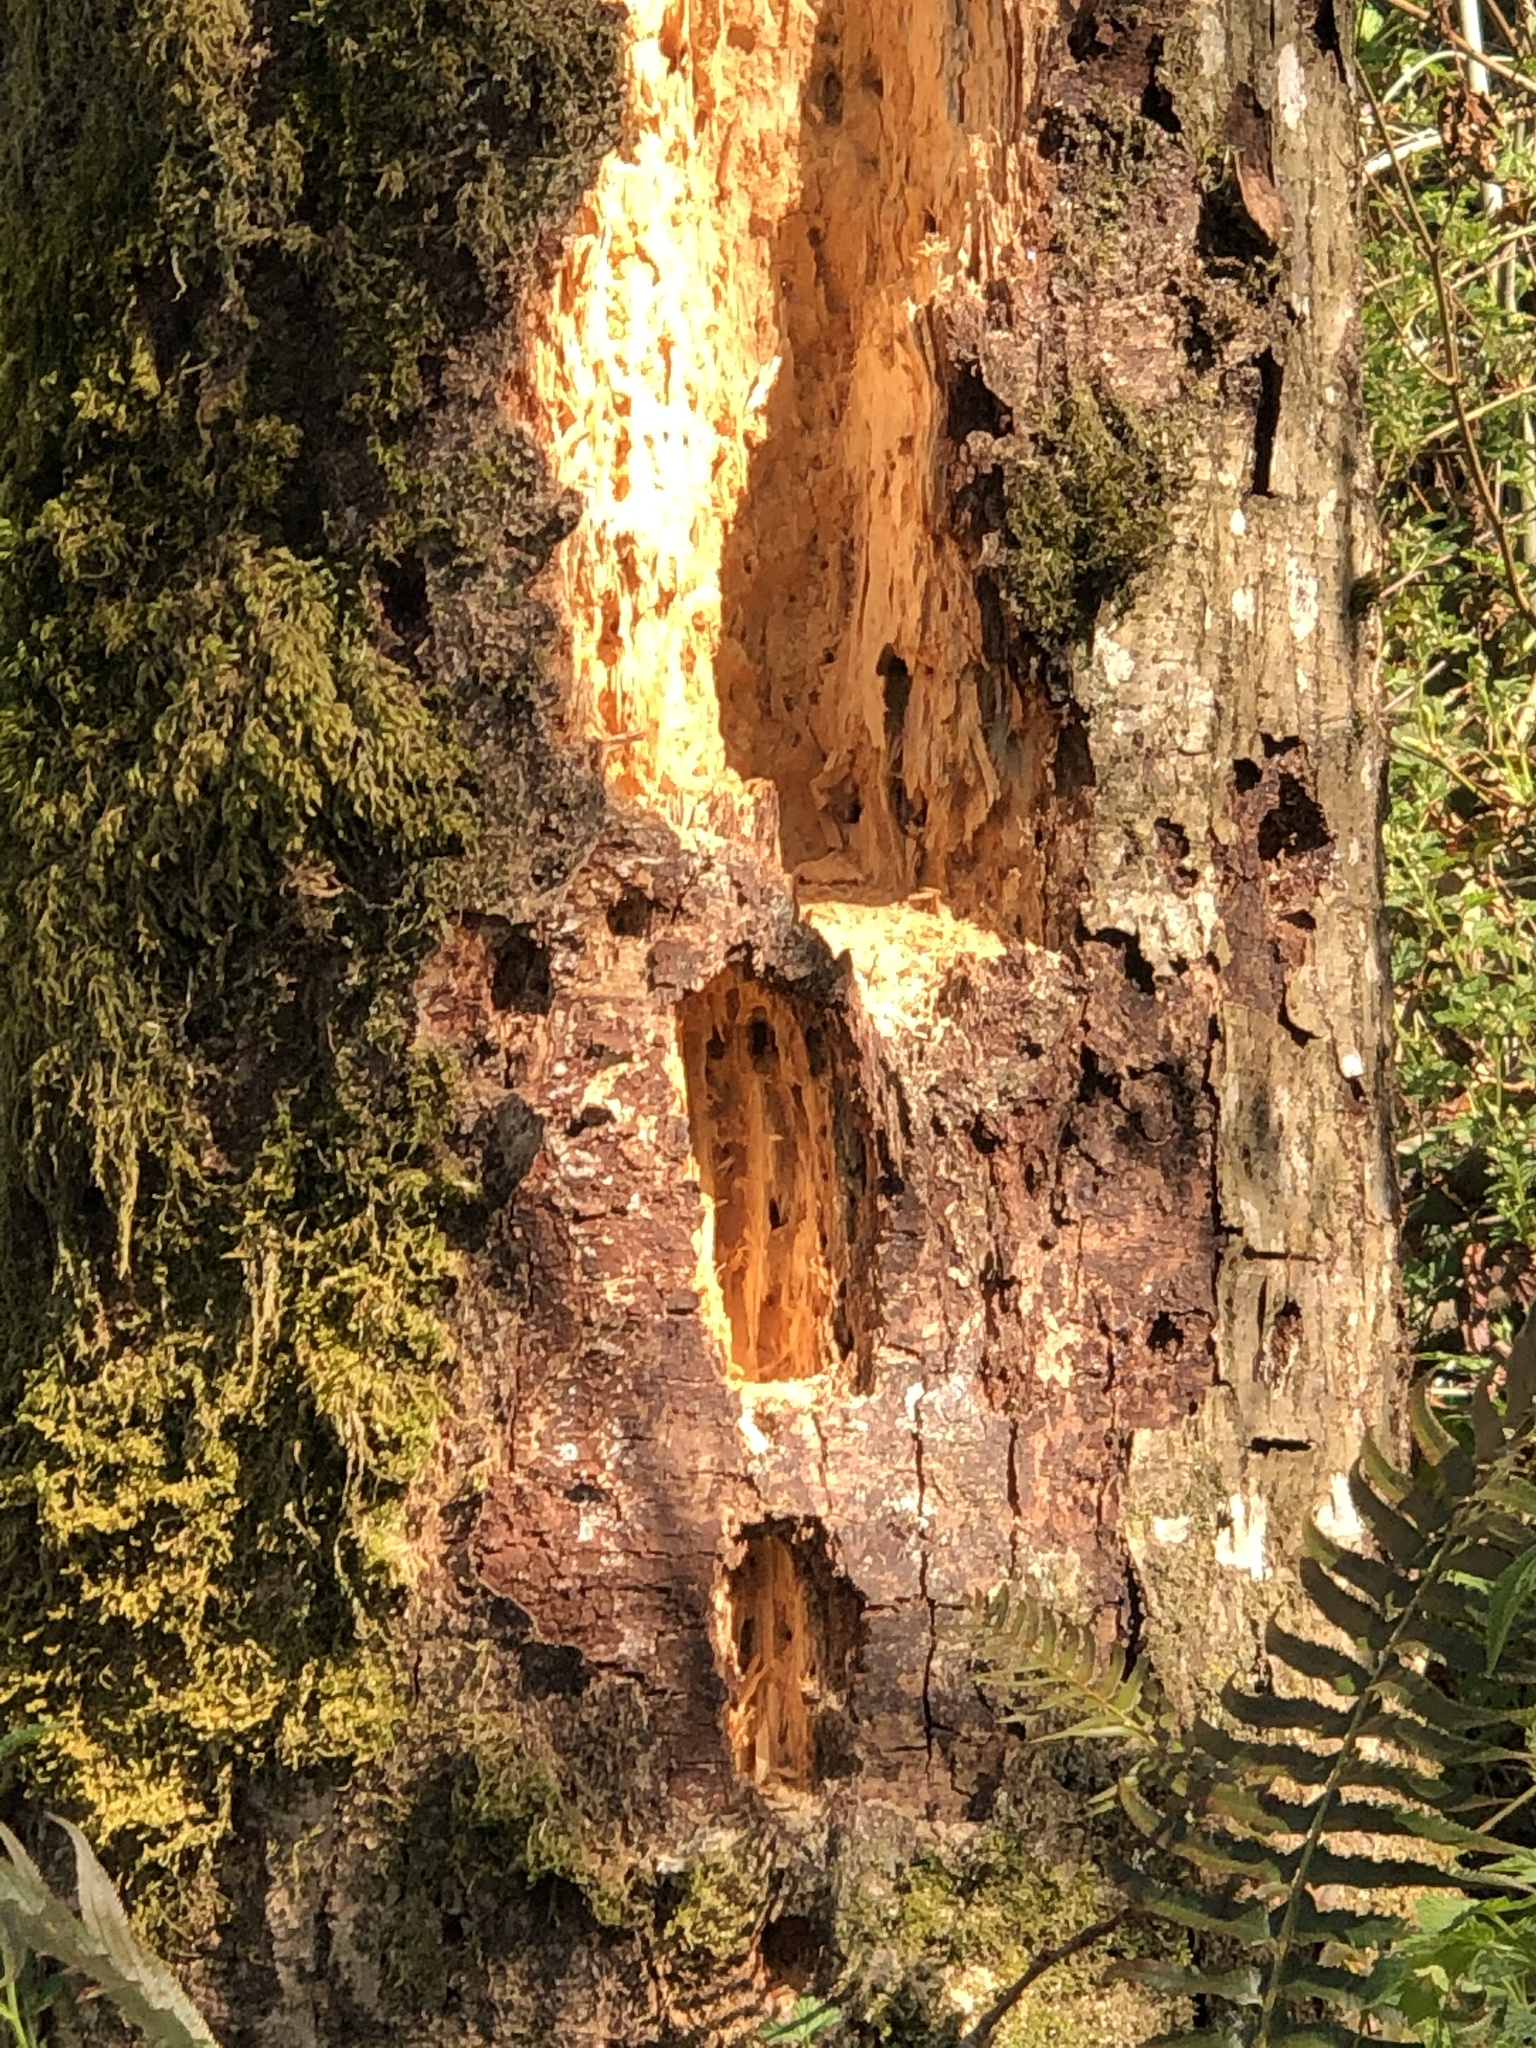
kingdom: Animalia
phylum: Chordata
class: Aves
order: Piciformes
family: Picidae
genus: Dryocopus
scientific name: Dryocopus pileatus
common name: Pileated woodpecker
